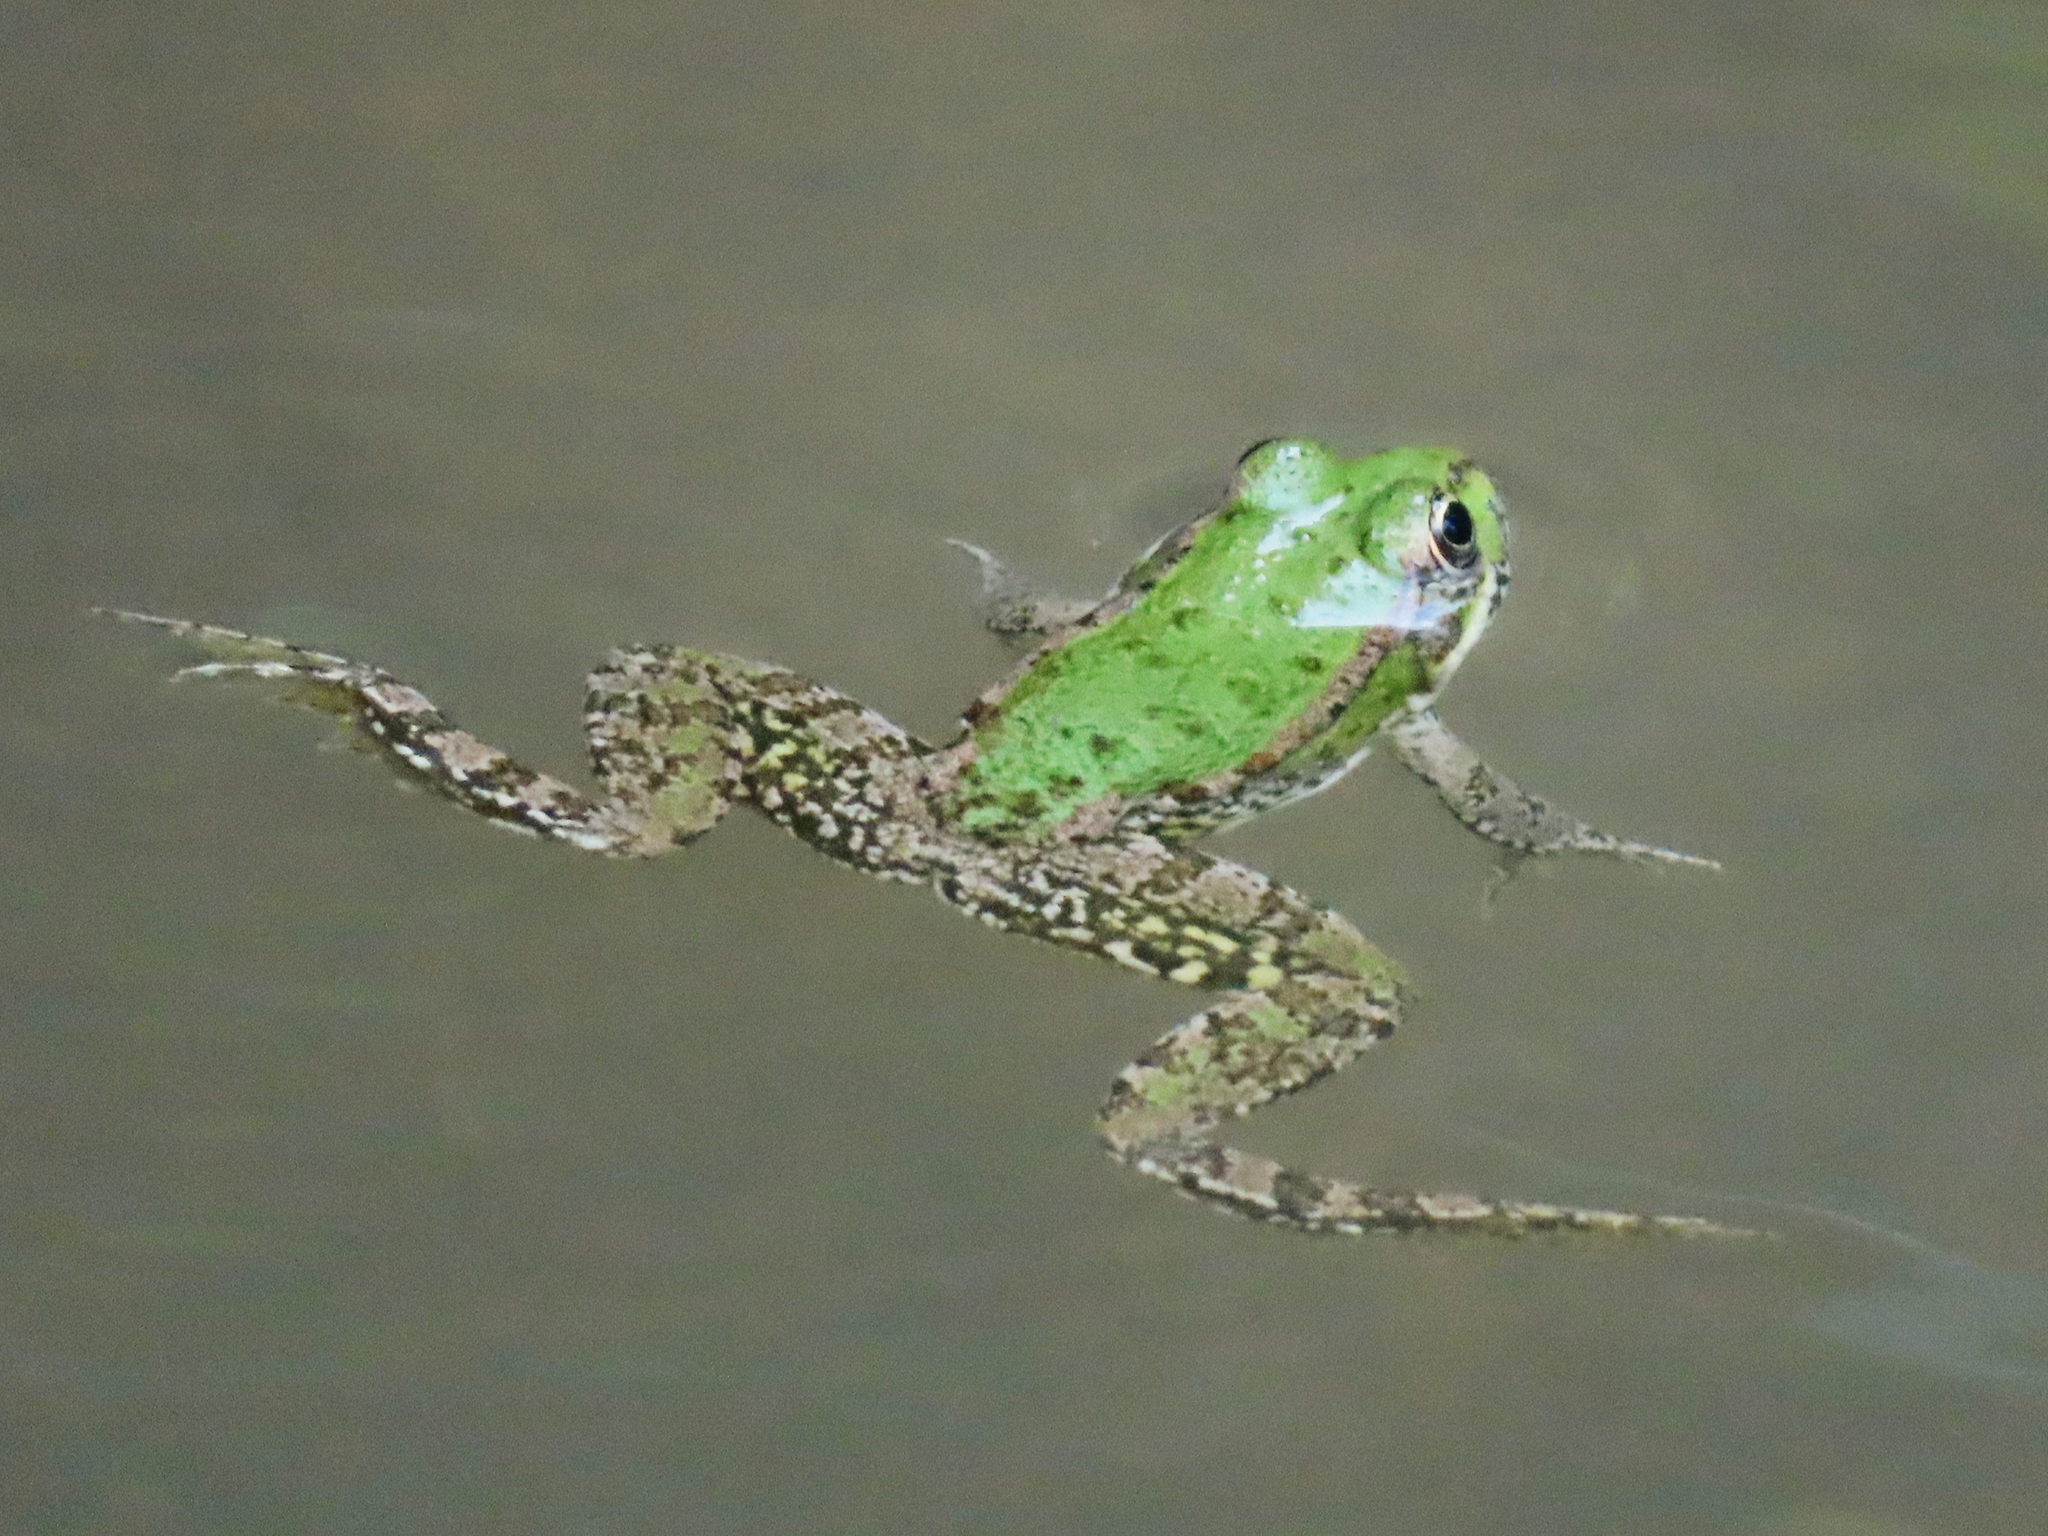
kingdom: Animalia
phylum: Chordata
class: Amphibia
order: Anura
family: Ranidae
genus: Pelophylax
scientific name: Pelophylax ridibundus
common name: Marsh frog
